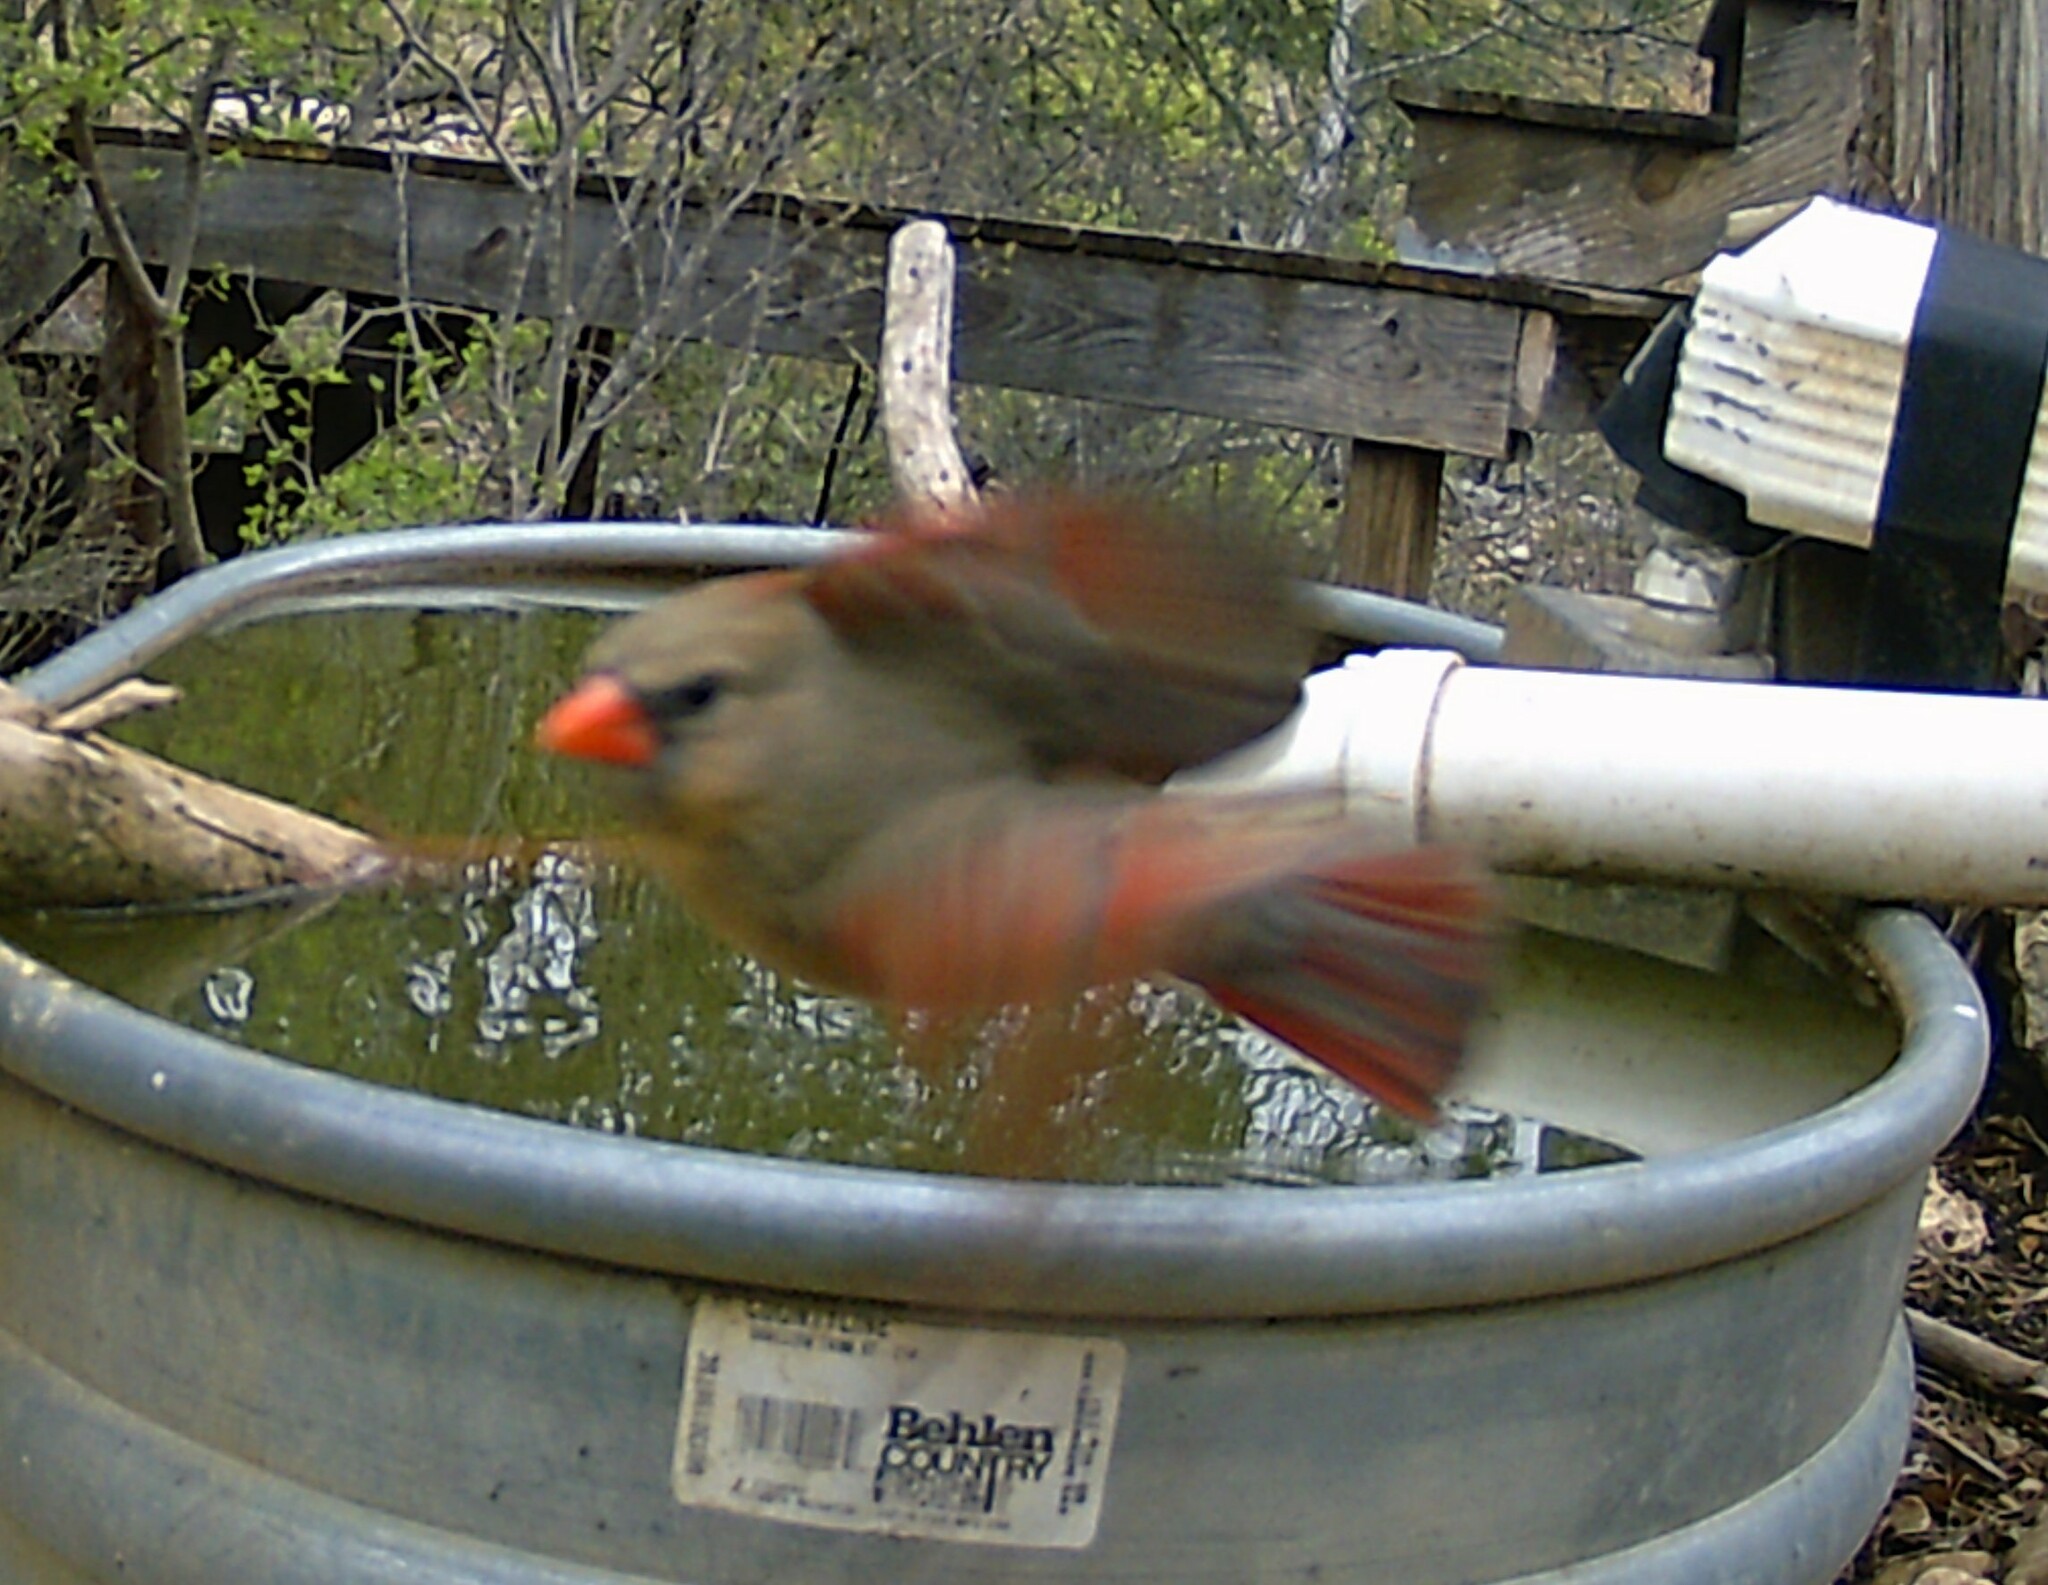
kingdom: Animalia
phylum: Chordata
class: Aves
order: Passeriformes
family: Cardinalidae
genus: Cardinalis
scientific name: Cardinalis cardinalis
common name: Northern cardinal
